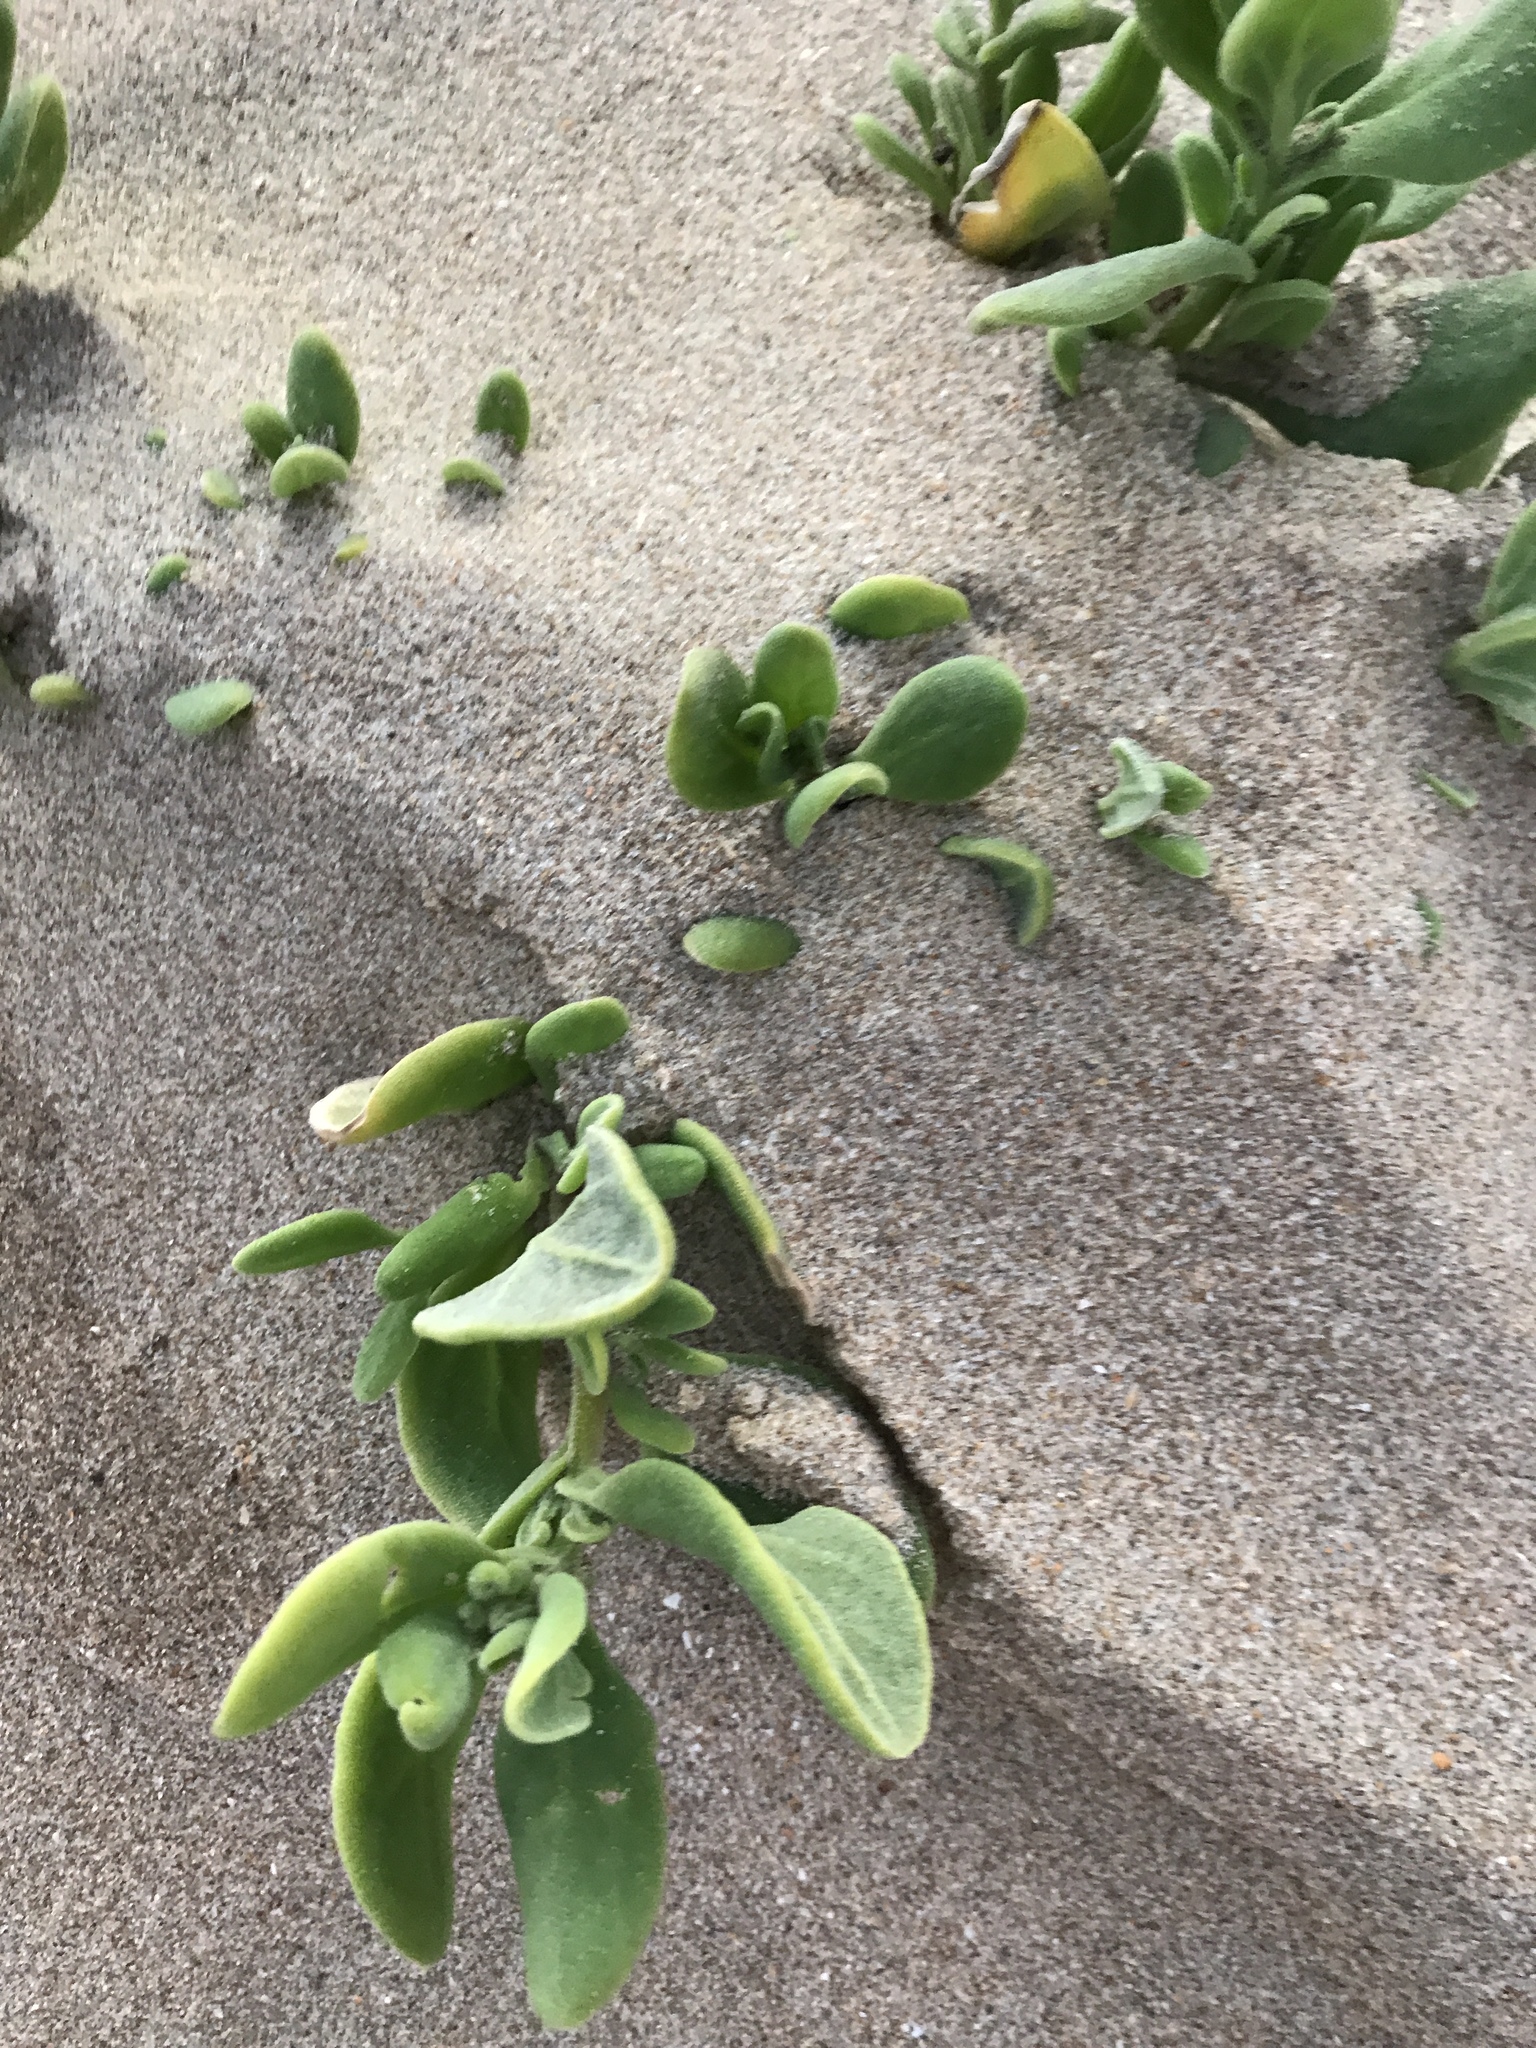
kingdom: Plantae
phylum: Tracheophyta
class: Magnoliopsida
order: Caryophyllales
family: Aizoaceae
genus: Tetragonia
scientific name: Tetragonia decumbens
